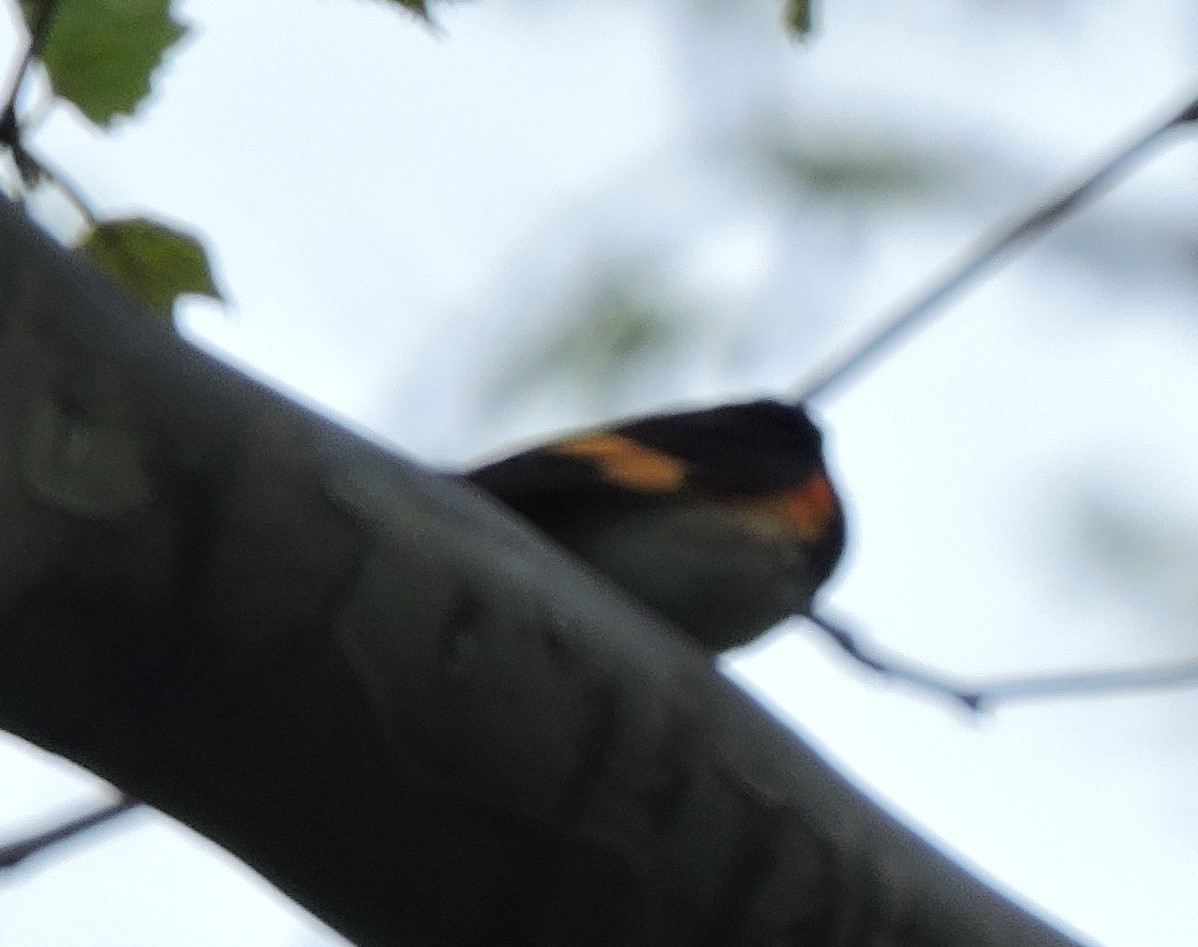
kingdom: Animalia
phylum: Chordata
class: Aves
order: Passeriformes
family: Parulidae
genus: Setophaga
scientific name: Setophaga ruticilla
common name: American redstart
